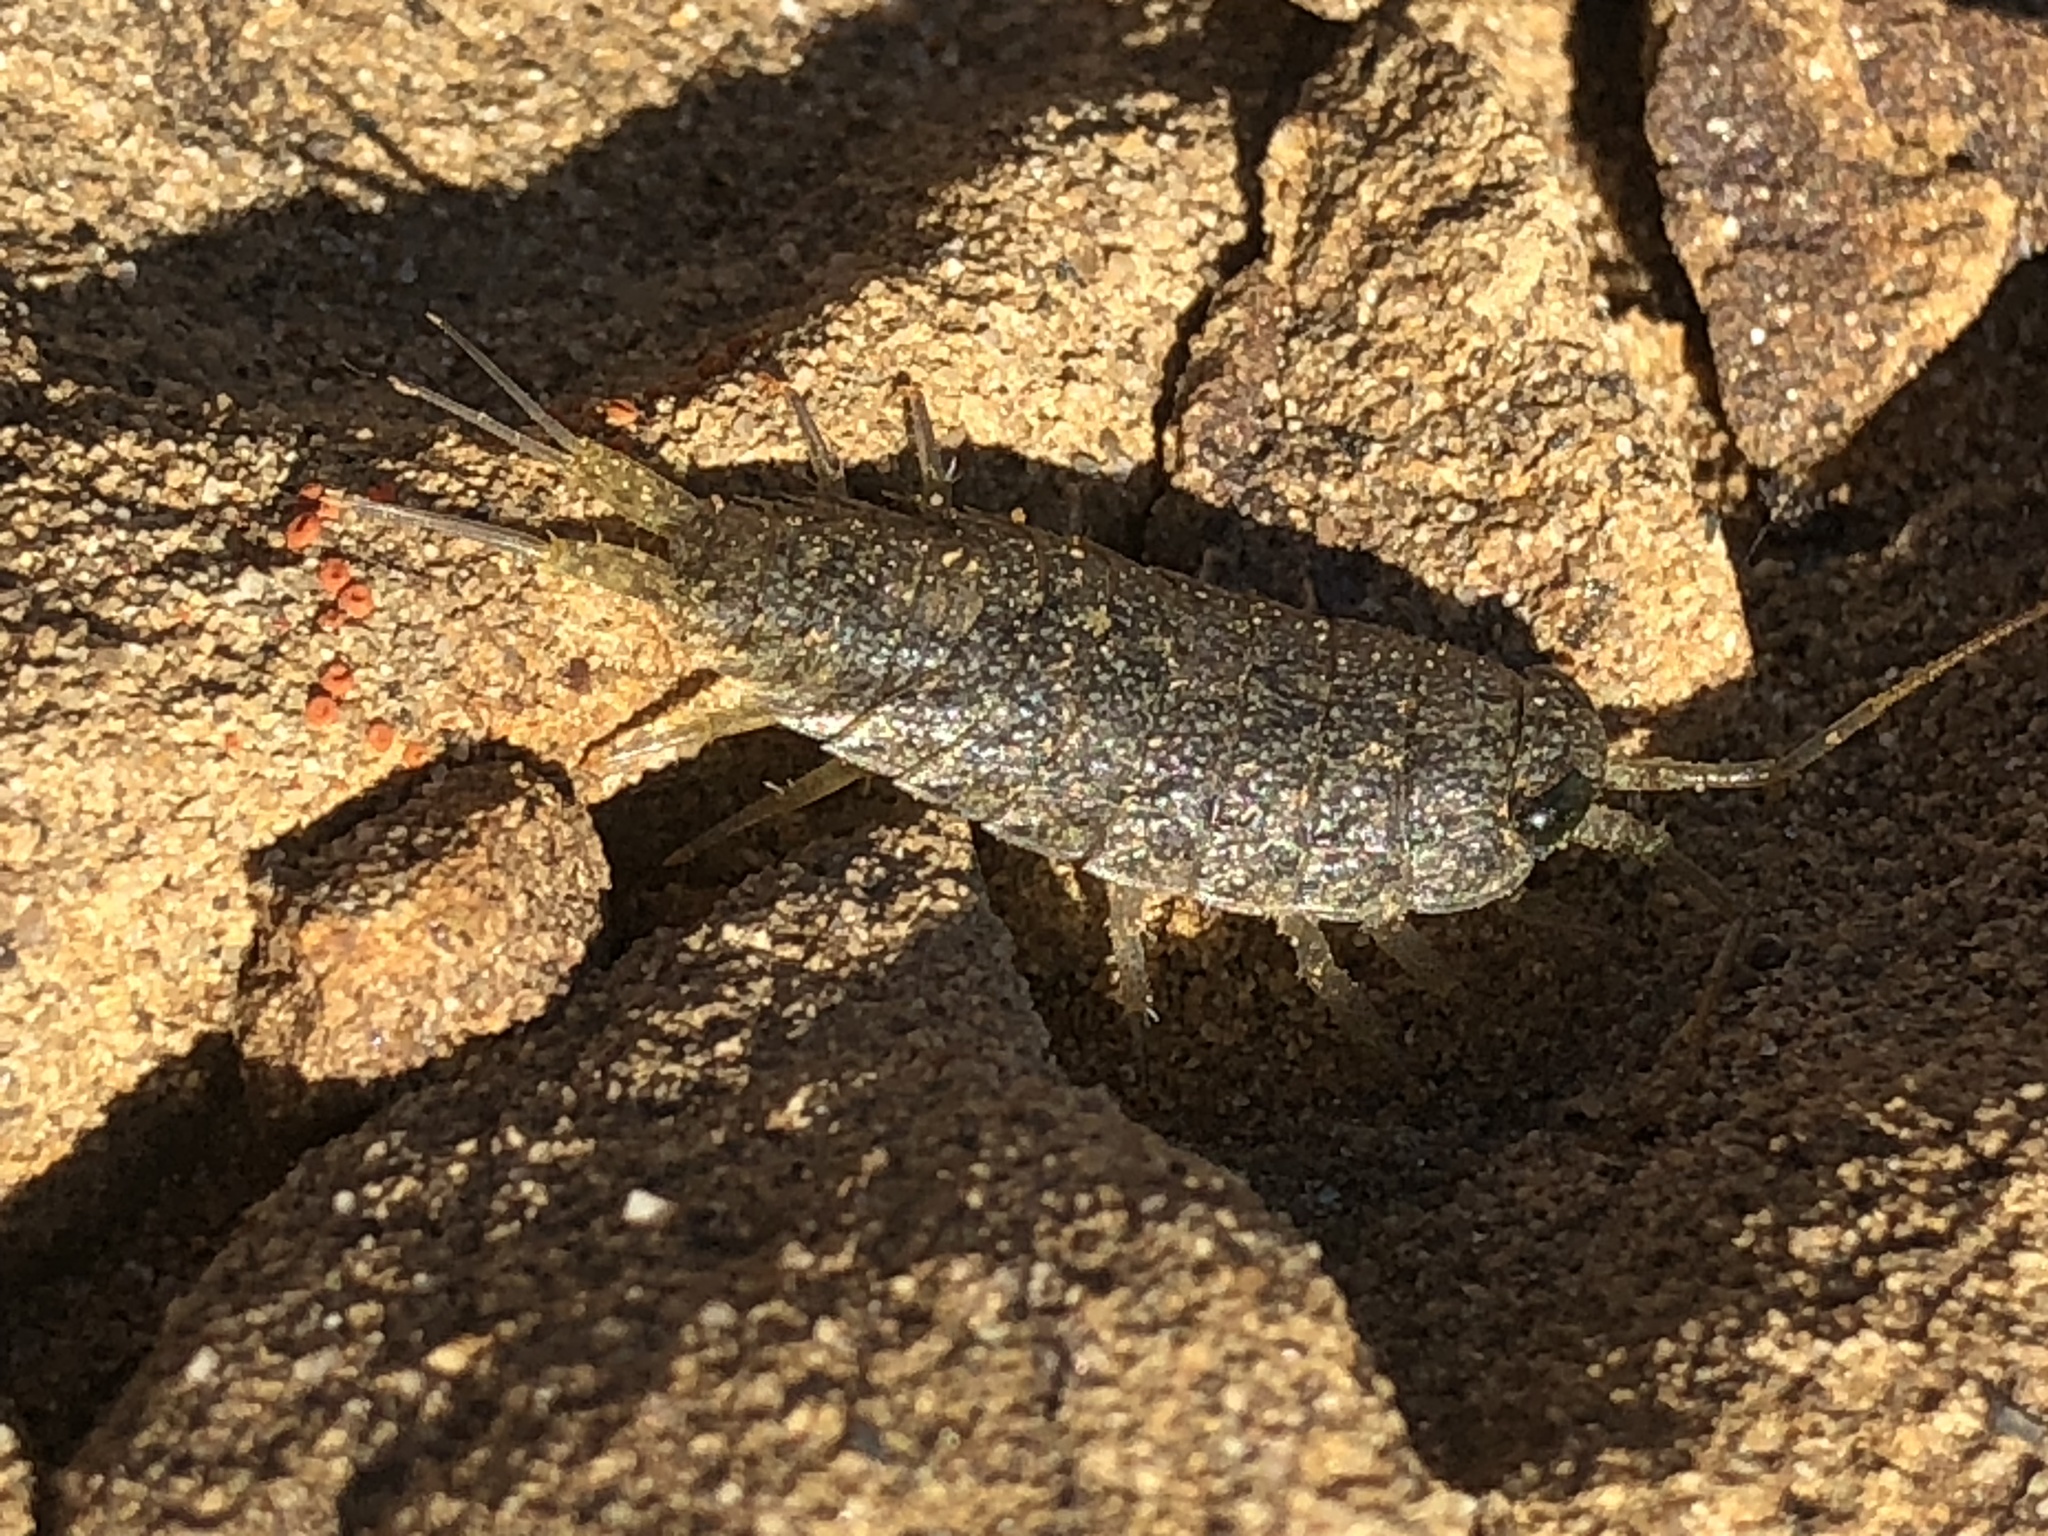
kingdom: Animalia
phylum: Arthropoda
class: Malacostraca
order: Isopoda
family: Ligiidae
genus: Ligia
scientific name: Ligia occidentalis
